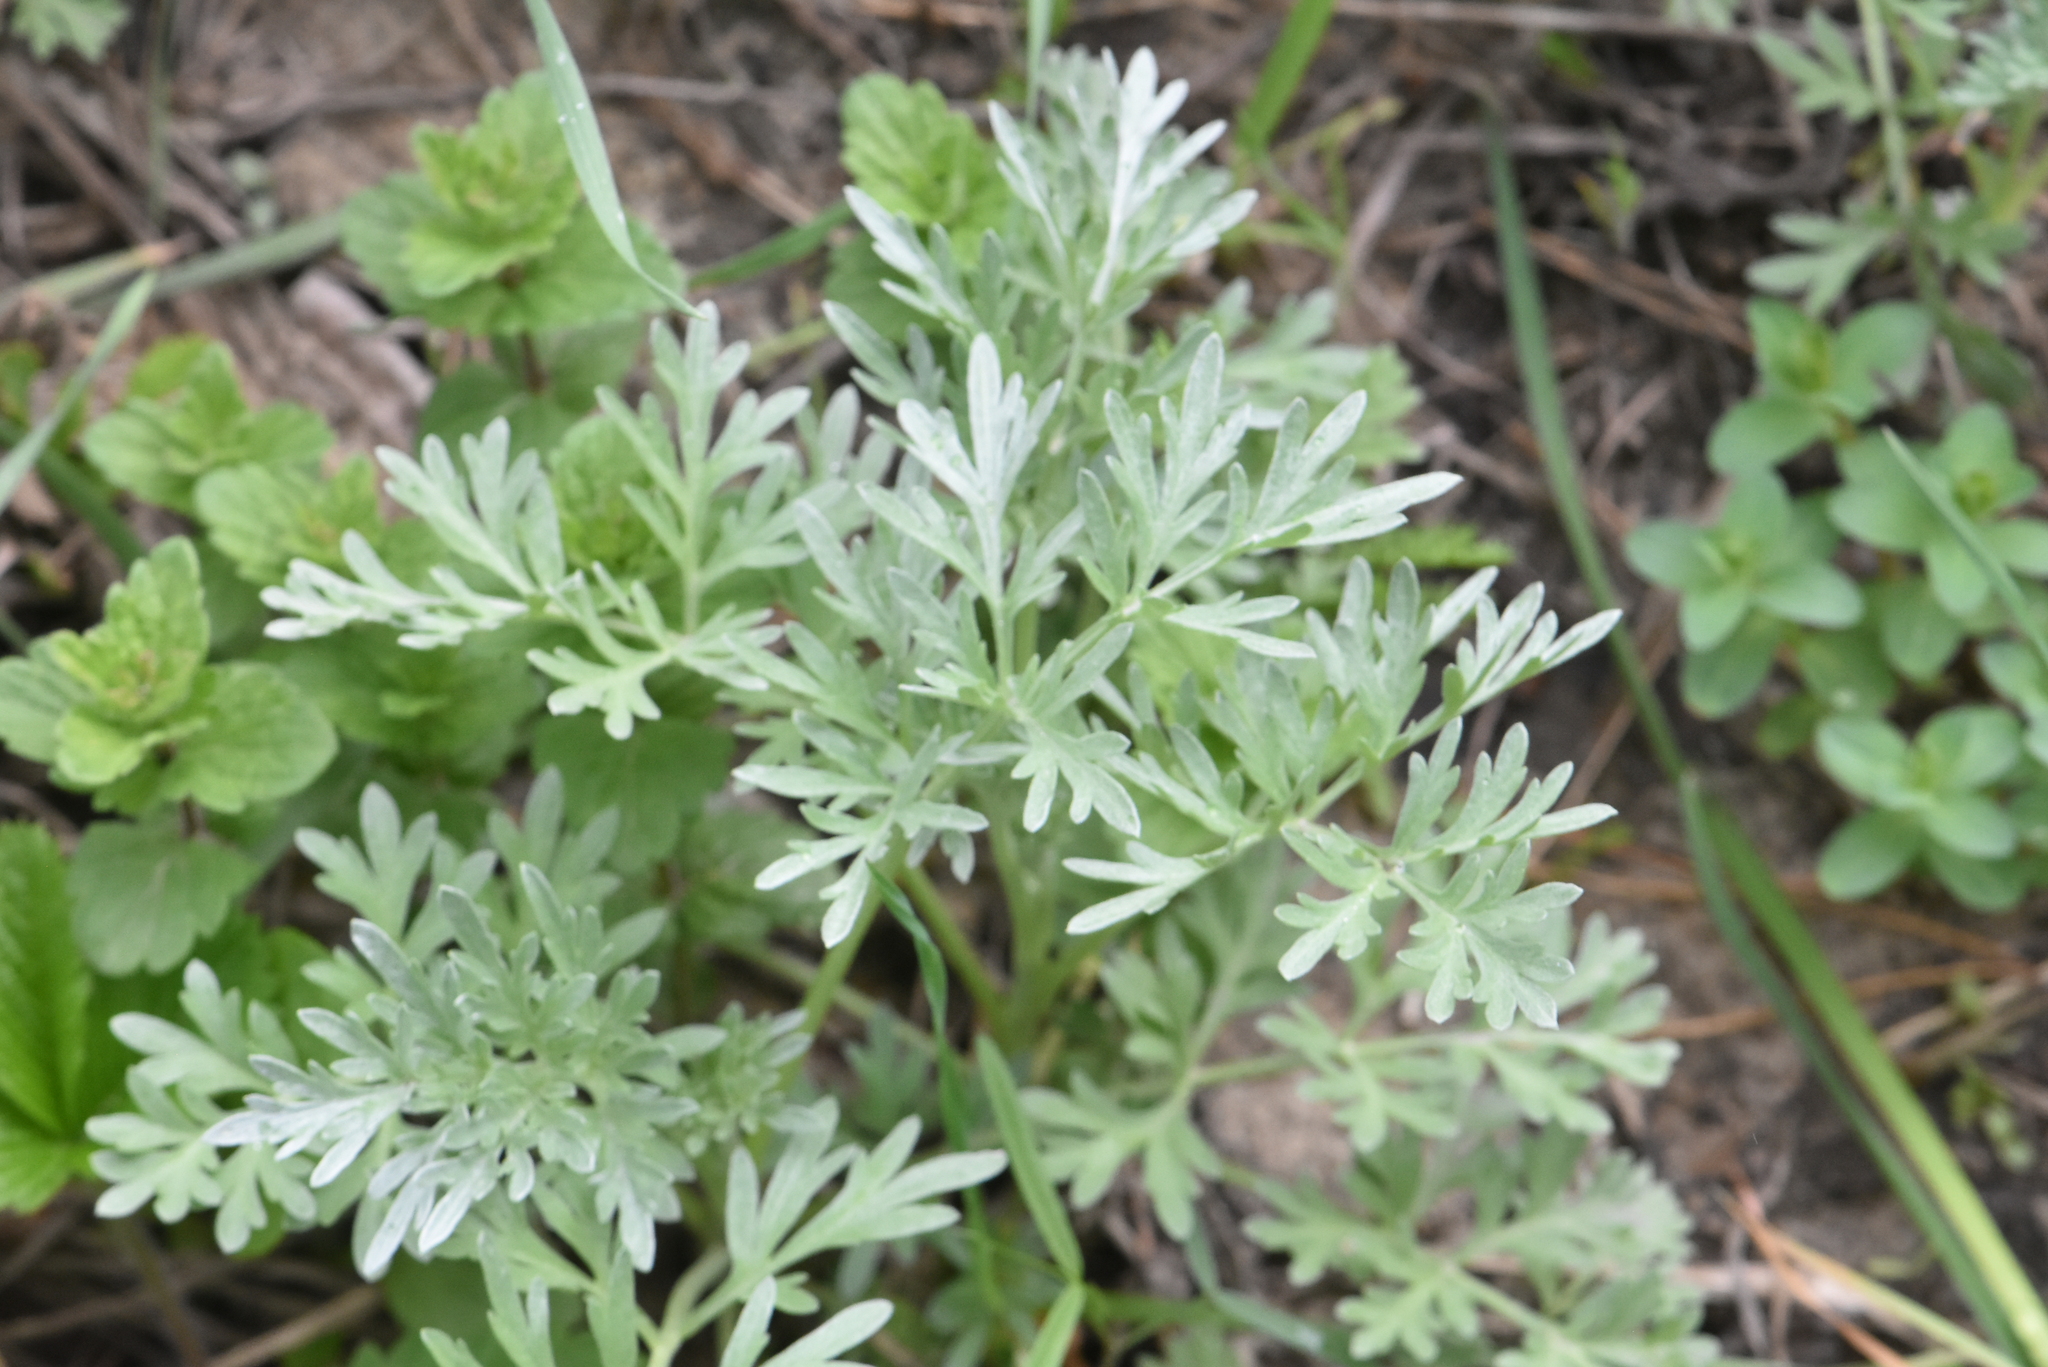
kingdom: Plantae
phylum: Tracheophyta
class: Magnoliopsida
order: Asterales
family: Asteraceae
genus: Artemisia
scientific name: Artemisia absinthium
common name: Wormwood
